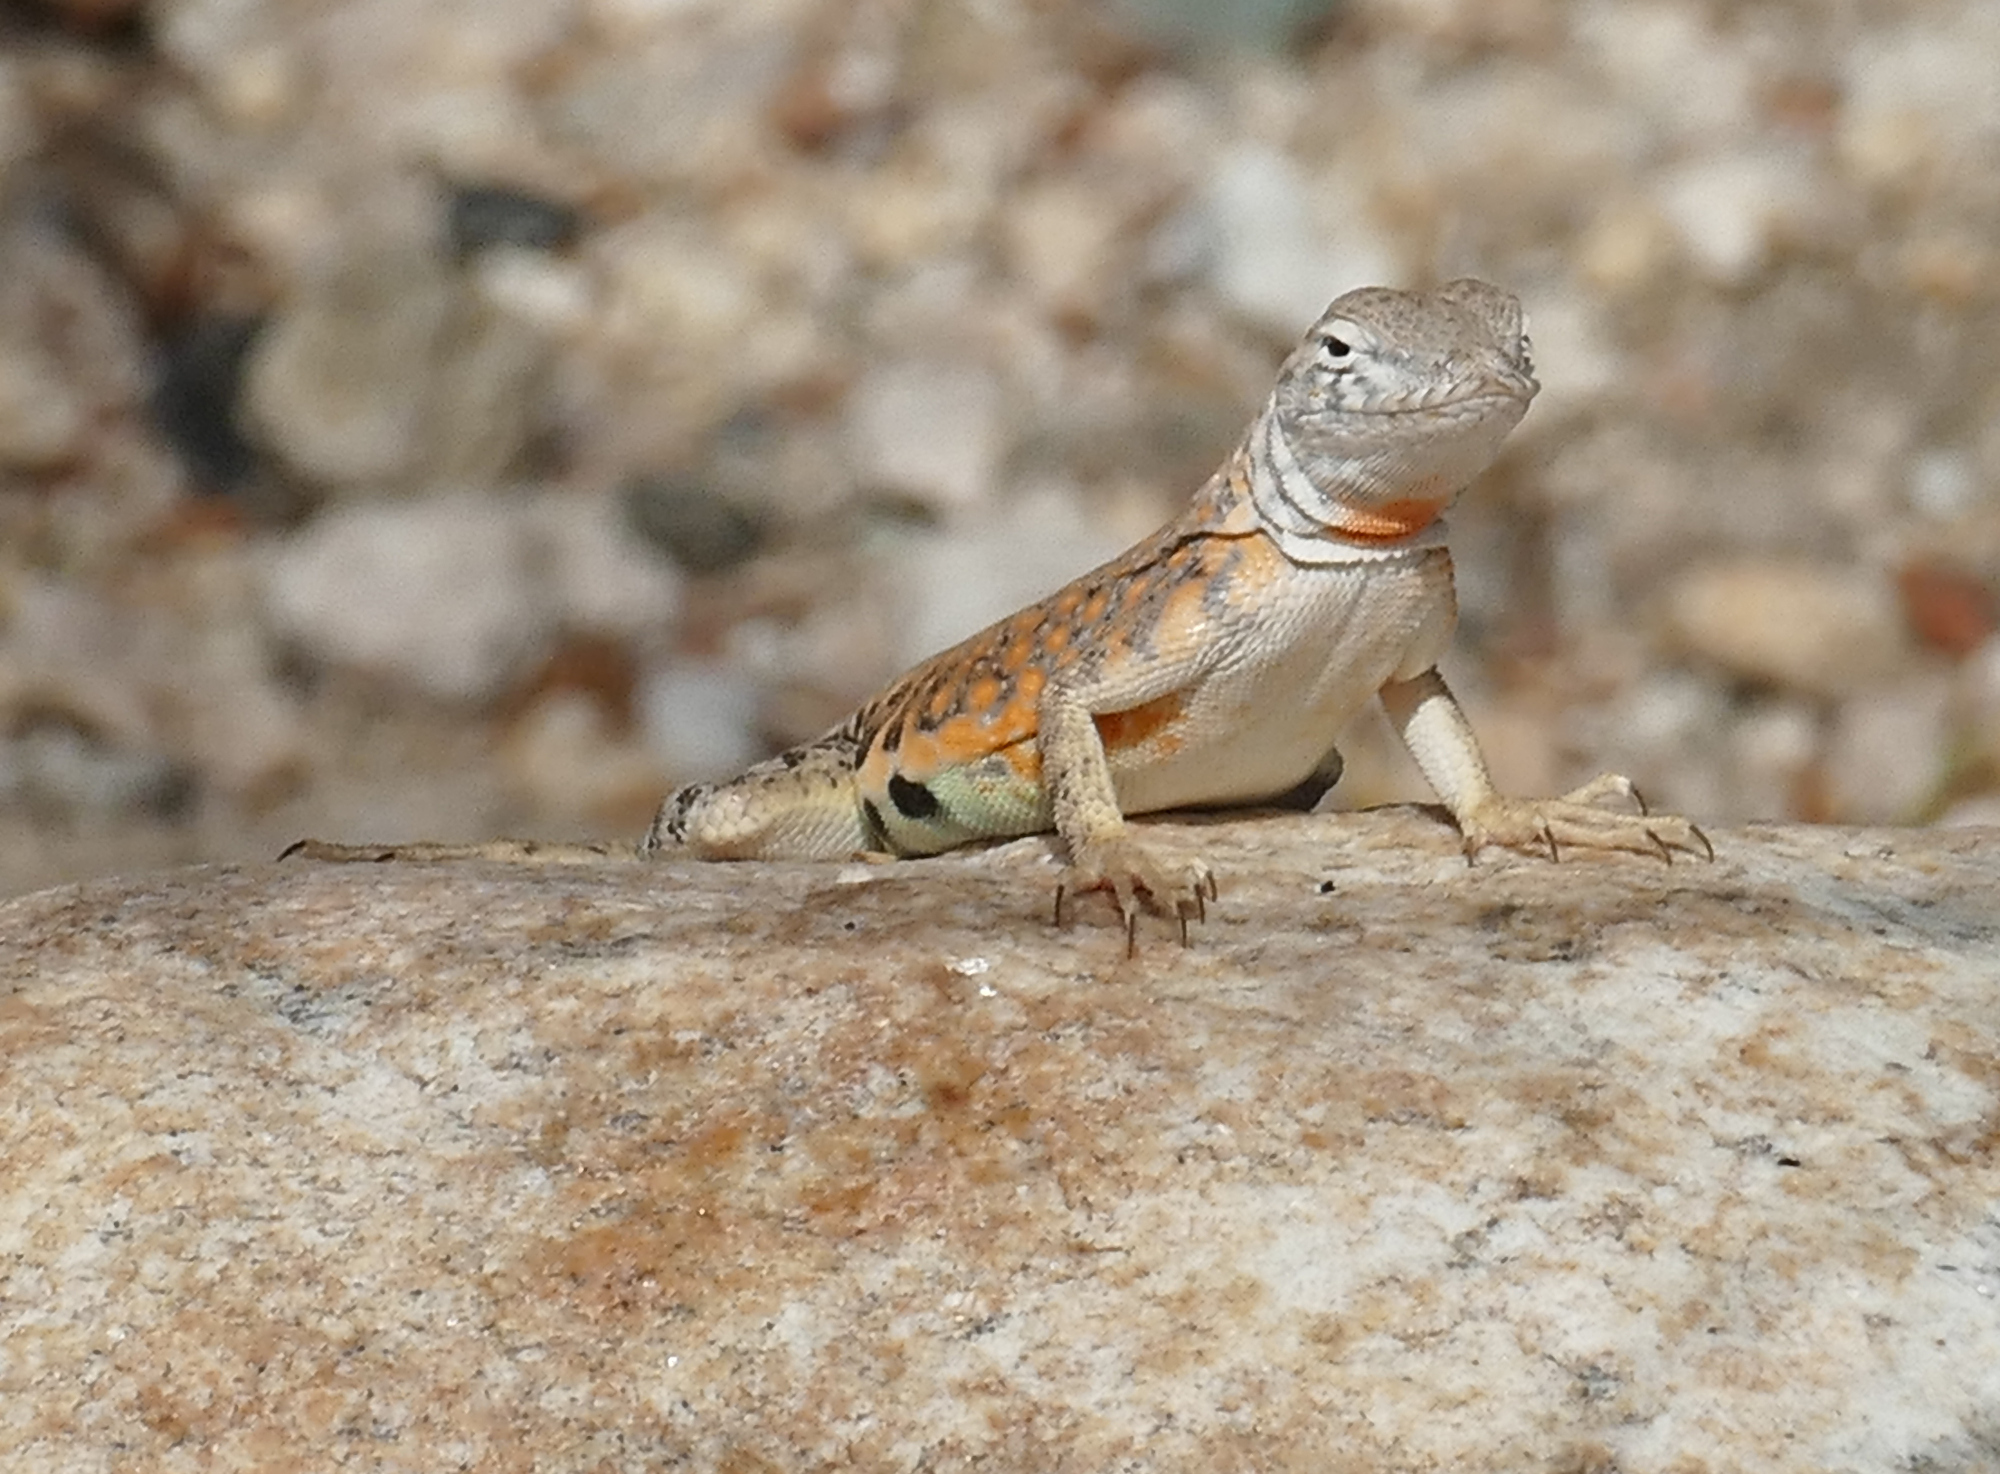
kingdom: Animalia
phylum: Chordata
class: Squamata
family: Phrynosomatidae
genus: Cophosaurus
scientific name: Cophosaurus texanus
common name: Greater earless lizard
